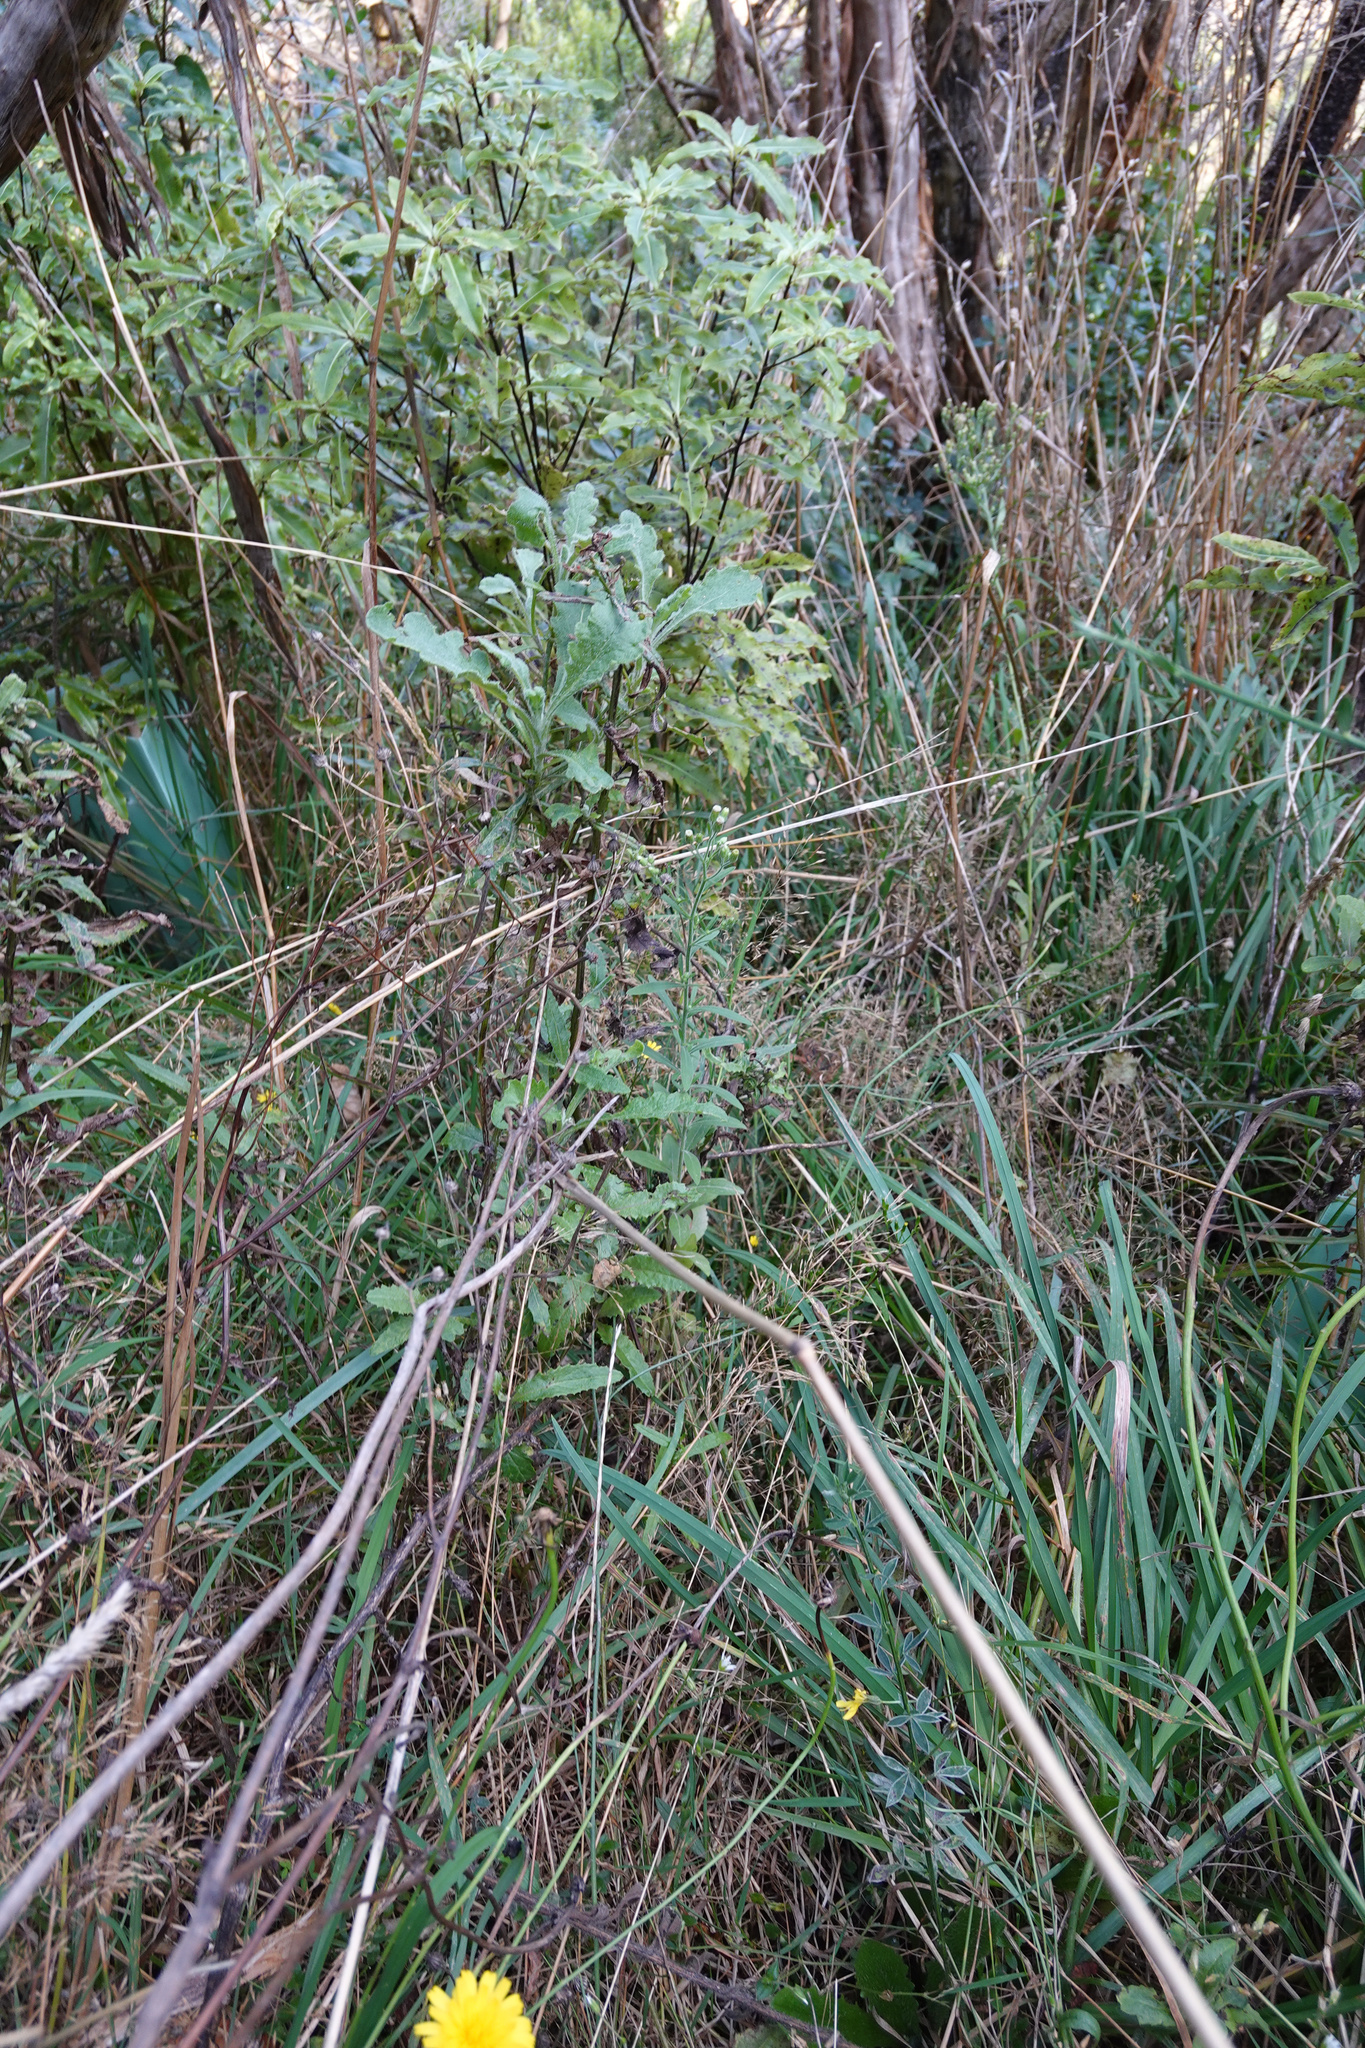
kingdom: Plantae
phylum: Tracheophyta
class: Magnoliopsida
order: Asterales
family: Asteraceae
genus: Senecio
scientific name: Senecio glomeratus
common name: Cutleaf burnweed
